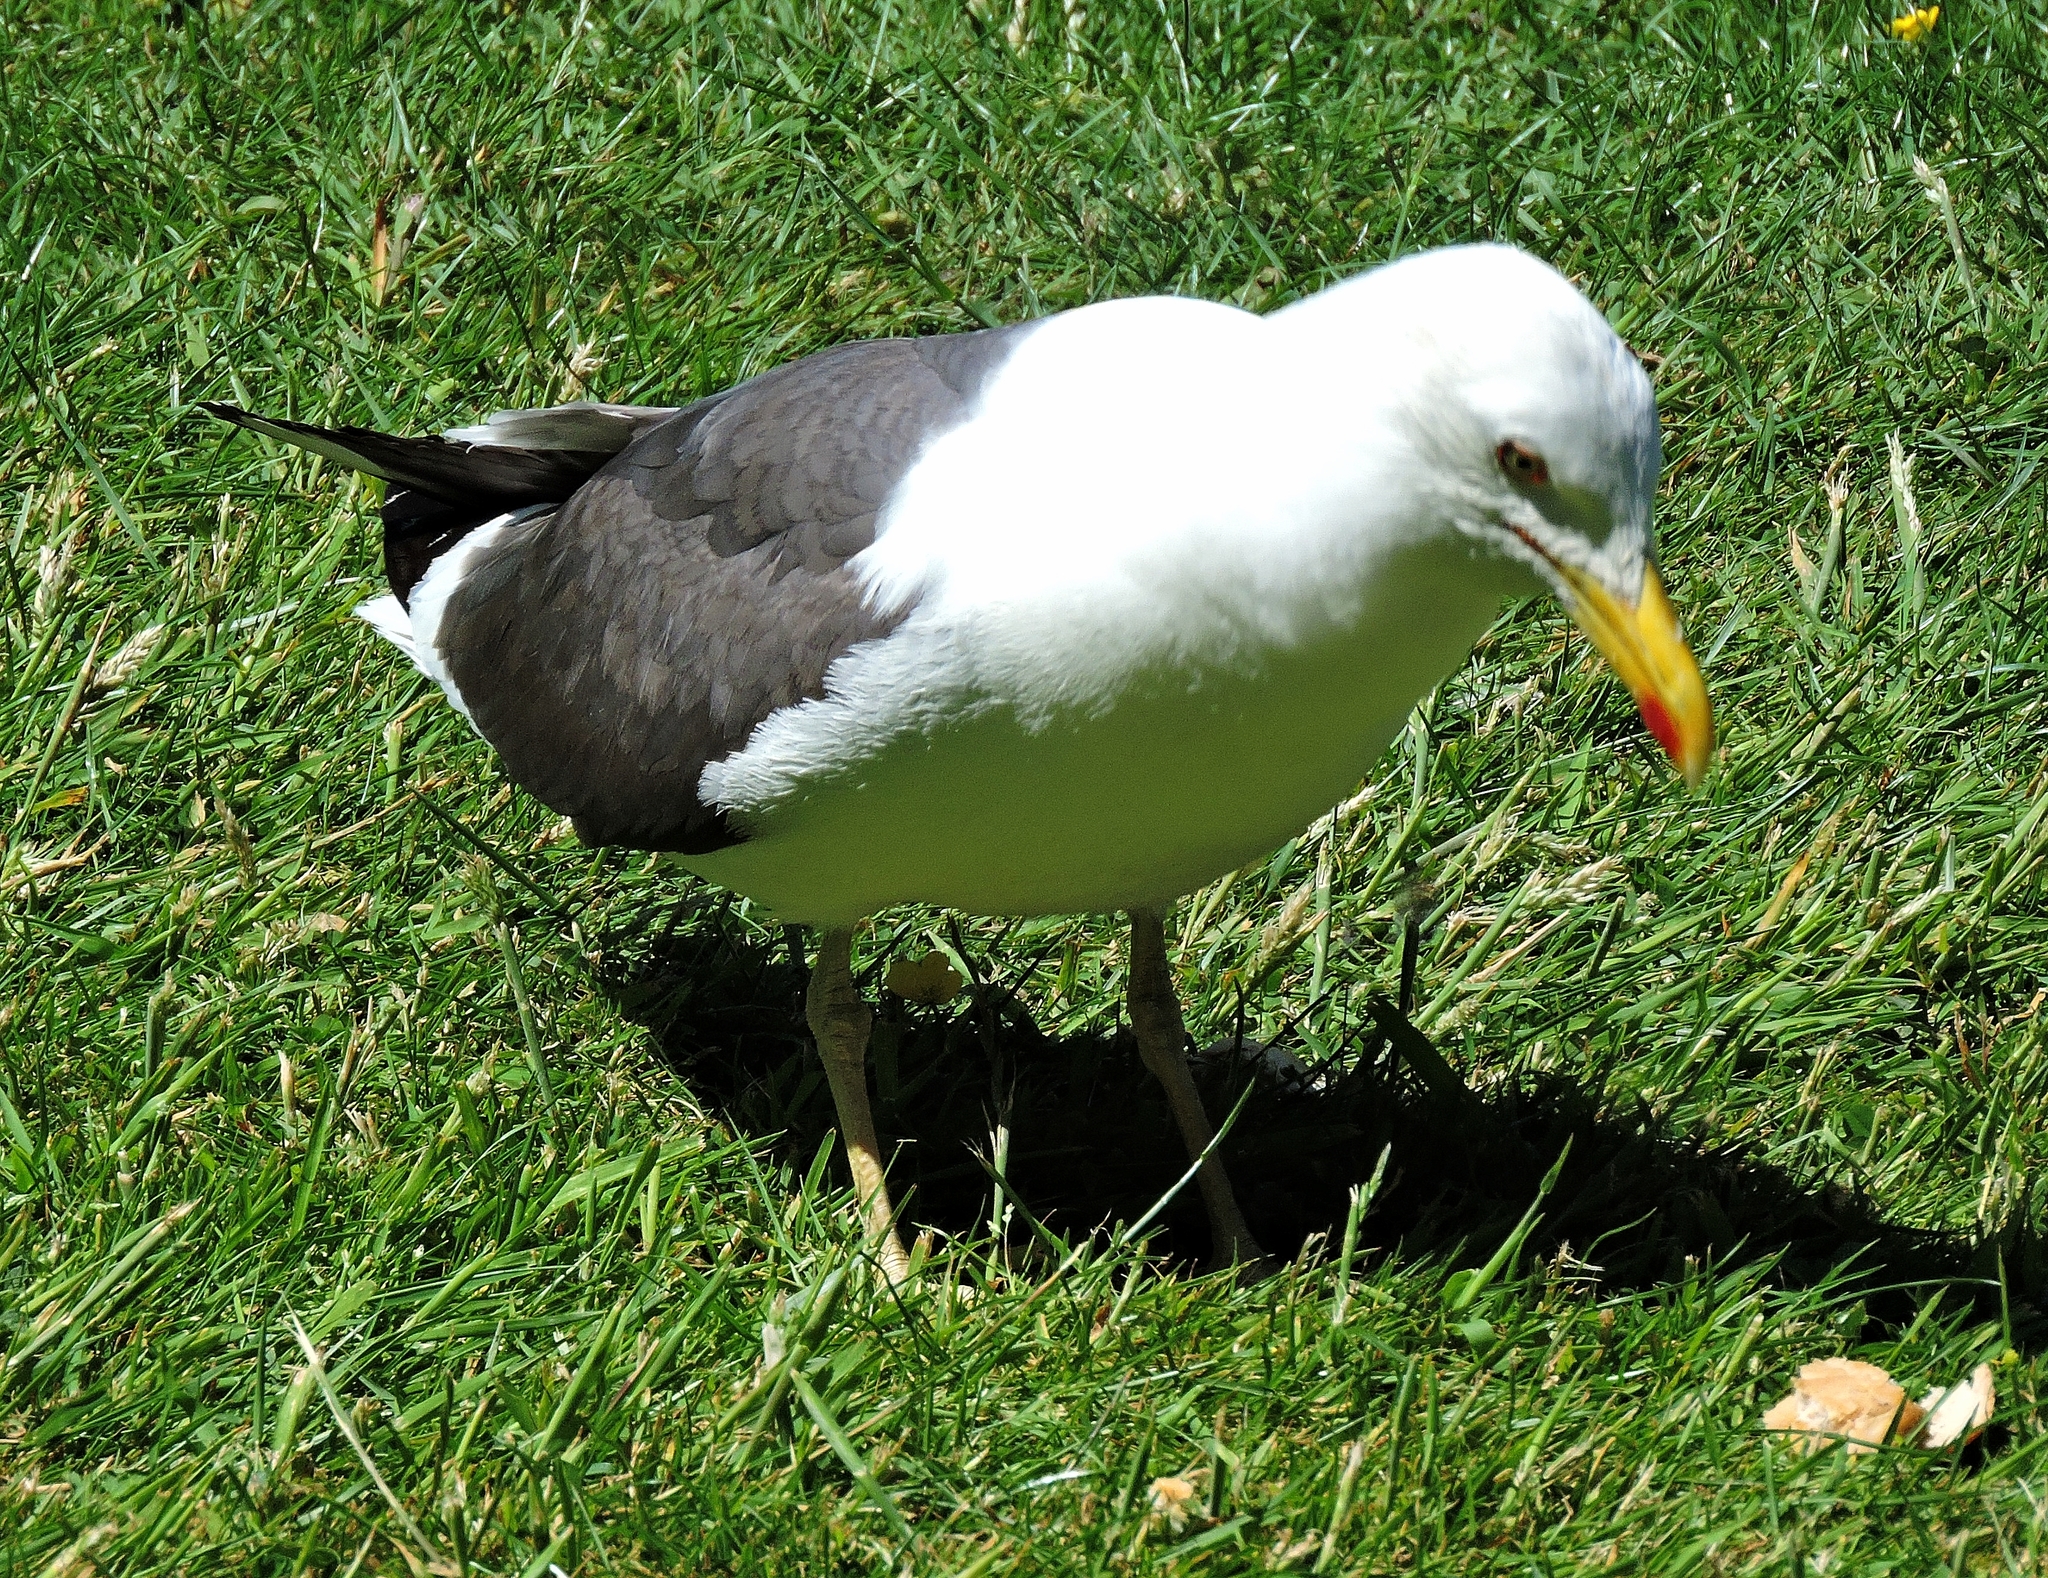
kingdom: Animalia
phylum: Chordata
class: Aves
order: Charadriiformes
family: Laridae
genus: Larus
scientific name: Larus fuscus
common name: Lesser black-backed gull
